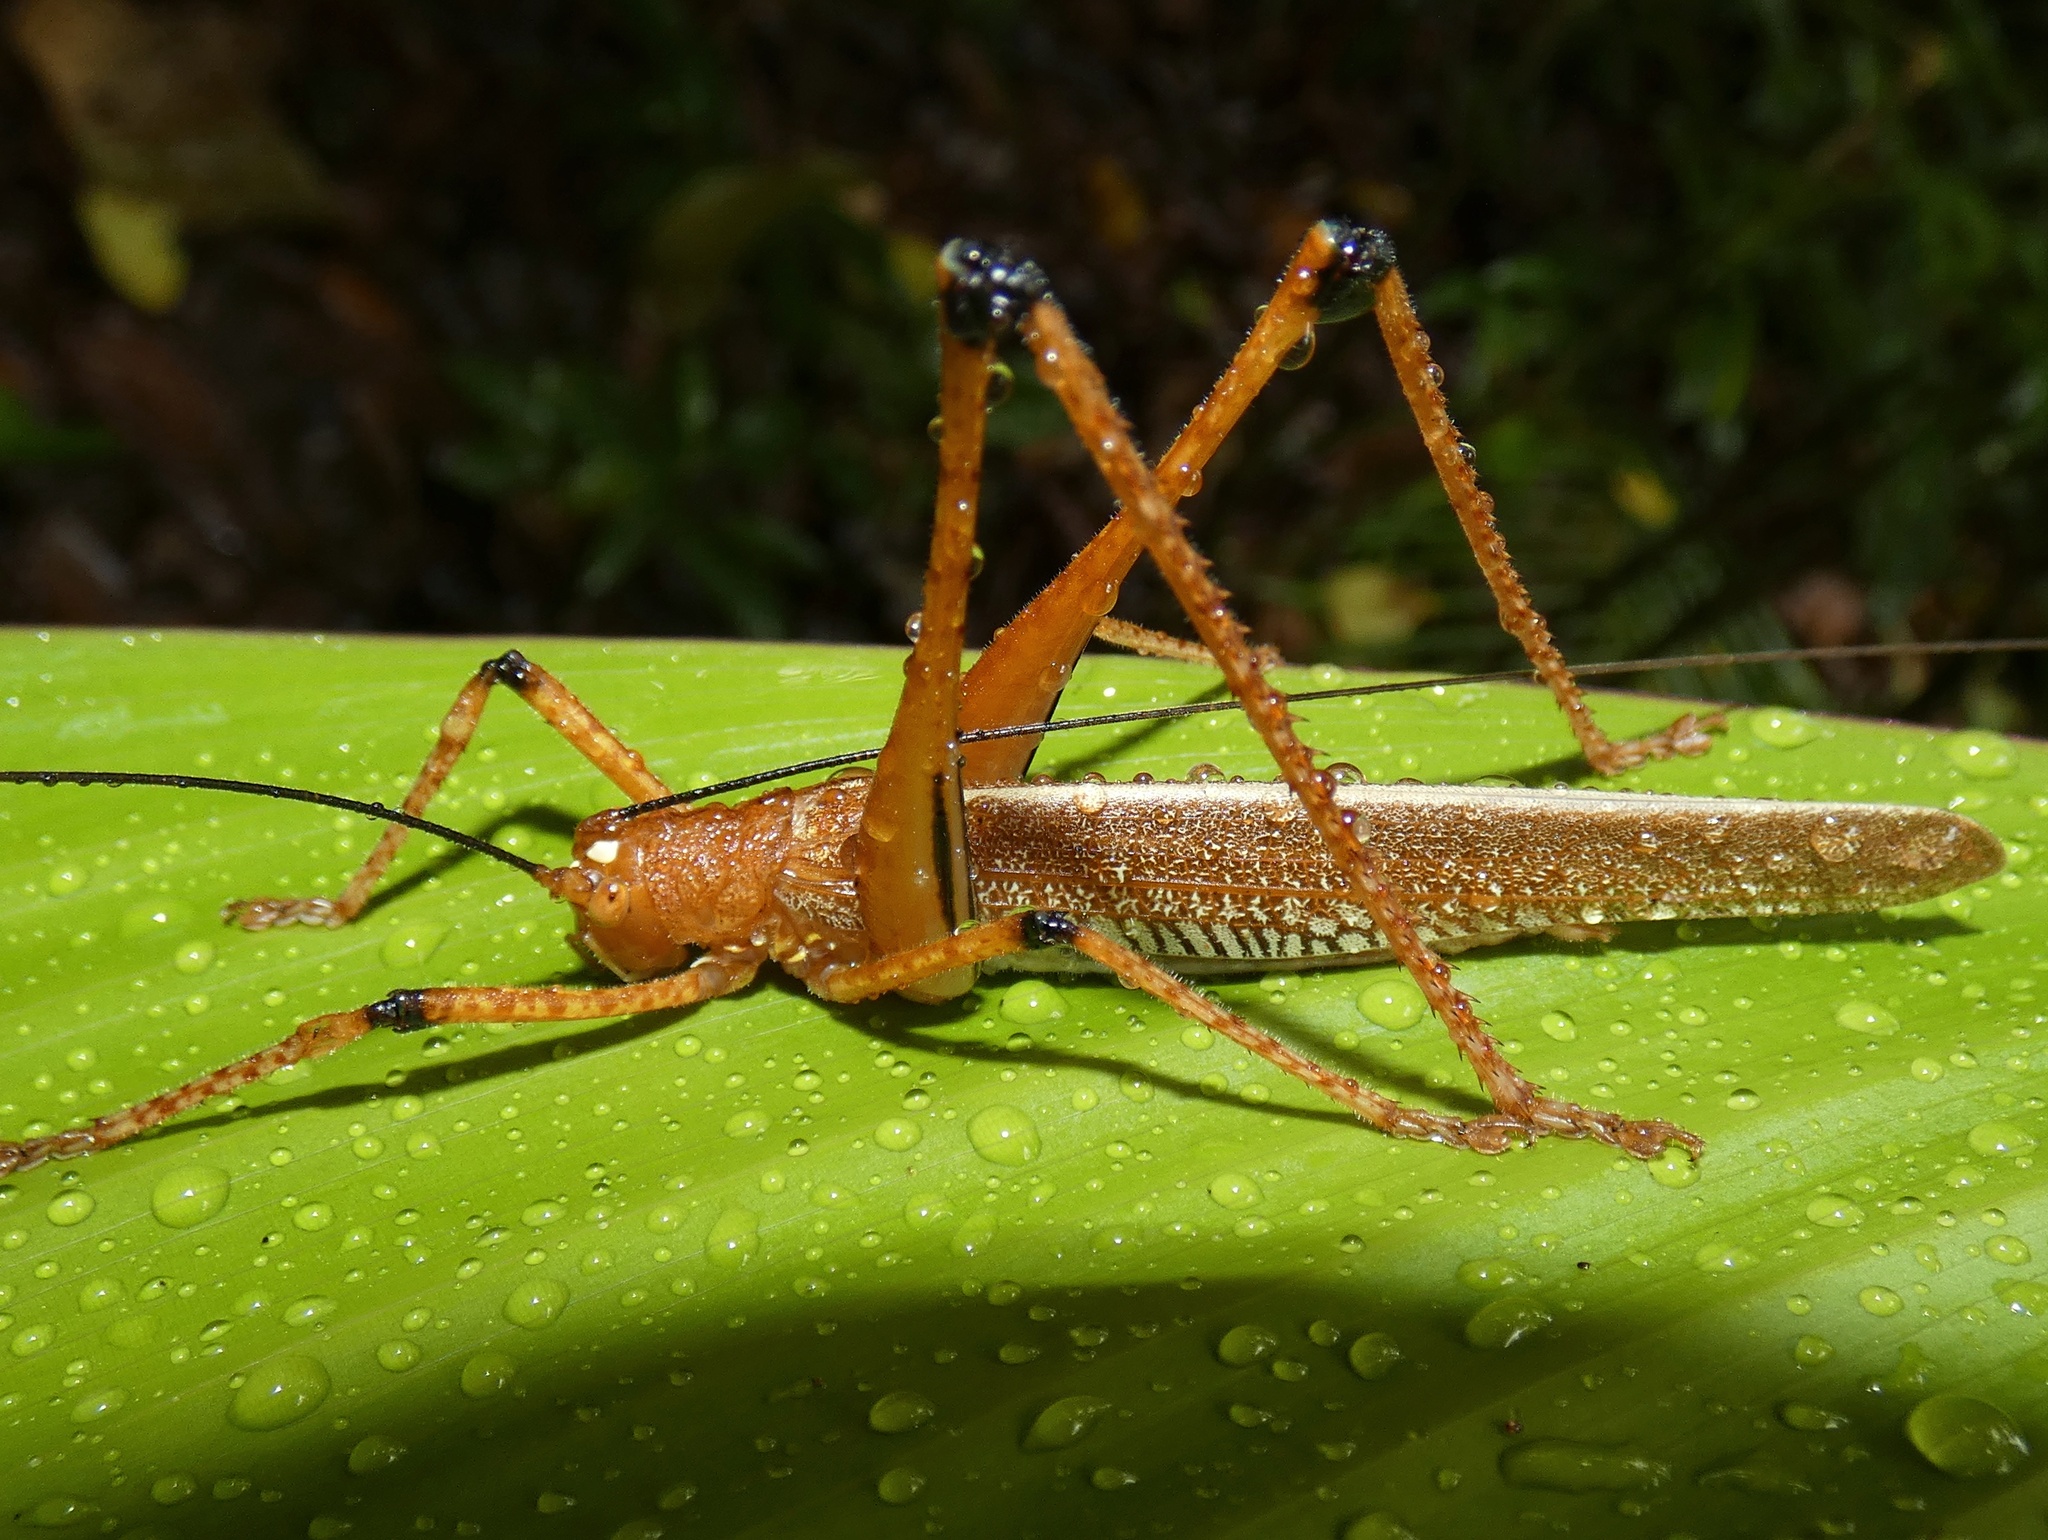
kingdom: Animalia
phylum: Arthropoda
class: Insecta
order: Orthoptera
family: Tettigoniidae
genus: Ischnomela
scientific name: Ischnomela gracilis
